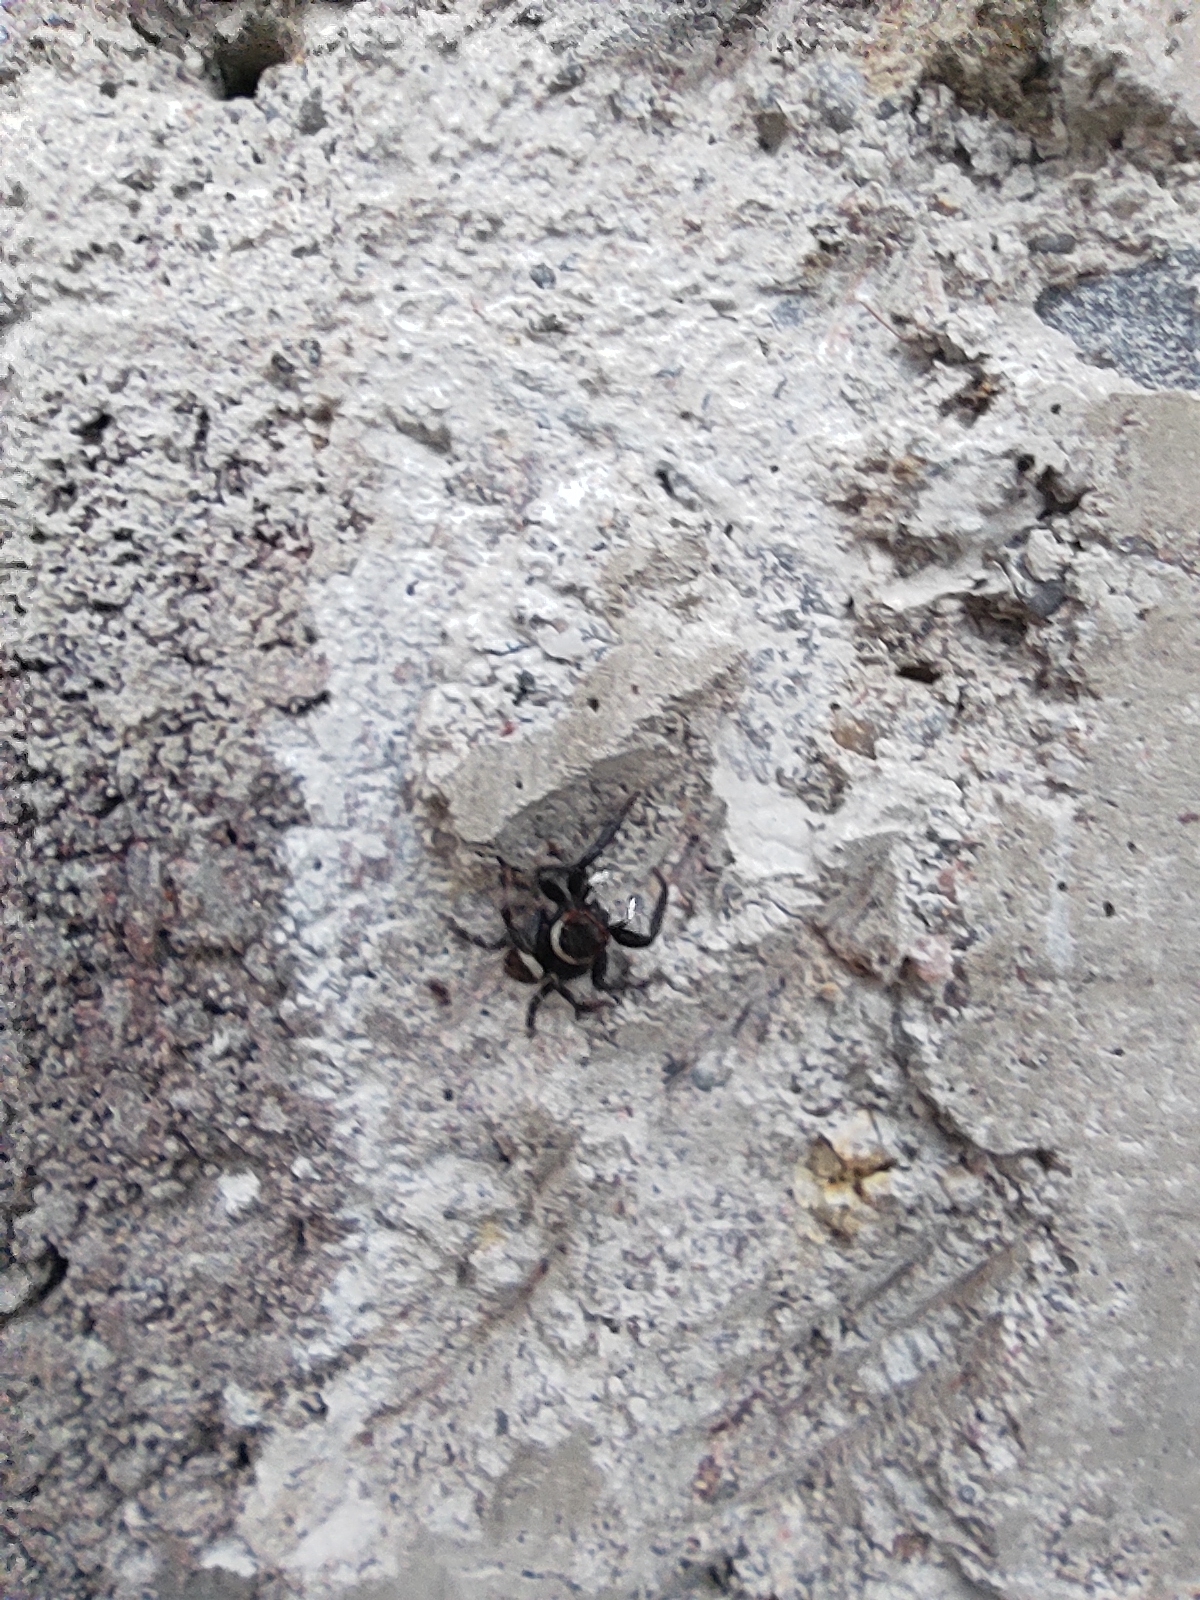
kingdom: Animalia
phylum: Arthropoda
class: Arachnida
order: Araneae
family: Salticidae
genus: Hasarius
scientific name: Hasarius adansoni
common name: Jumping spider
